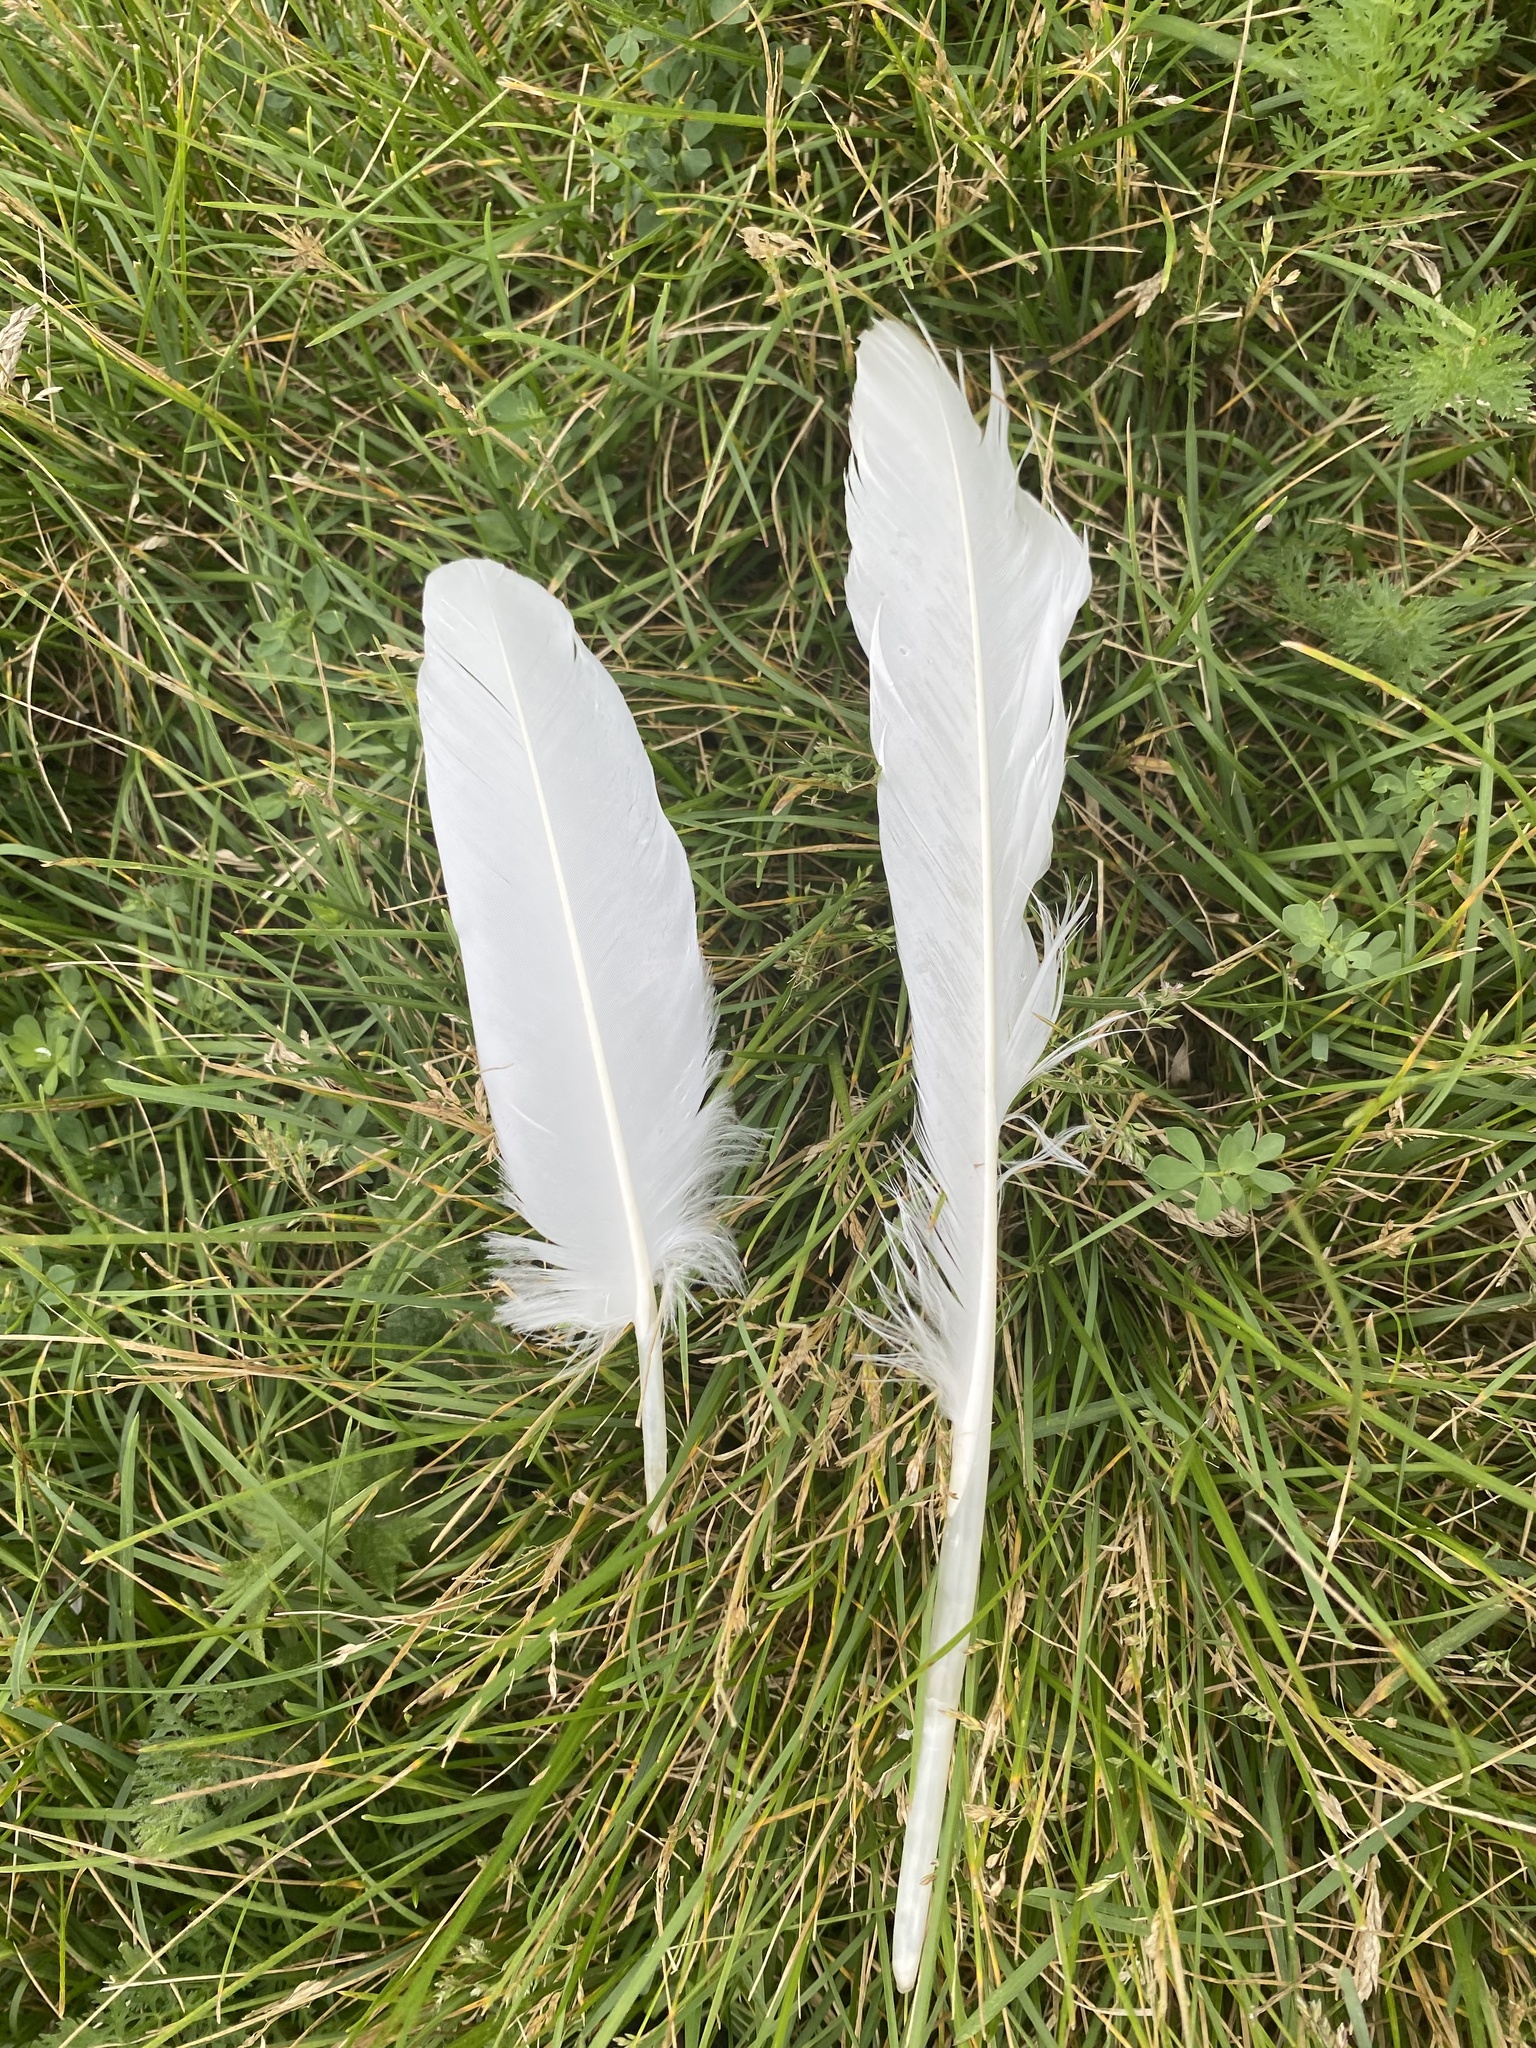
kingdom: Animalia
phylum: Chordata
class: Aves
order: Anseriformes
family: Anatidae
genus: Cygnus
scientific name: Cygnus buccinator
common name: Trumpeter swan
